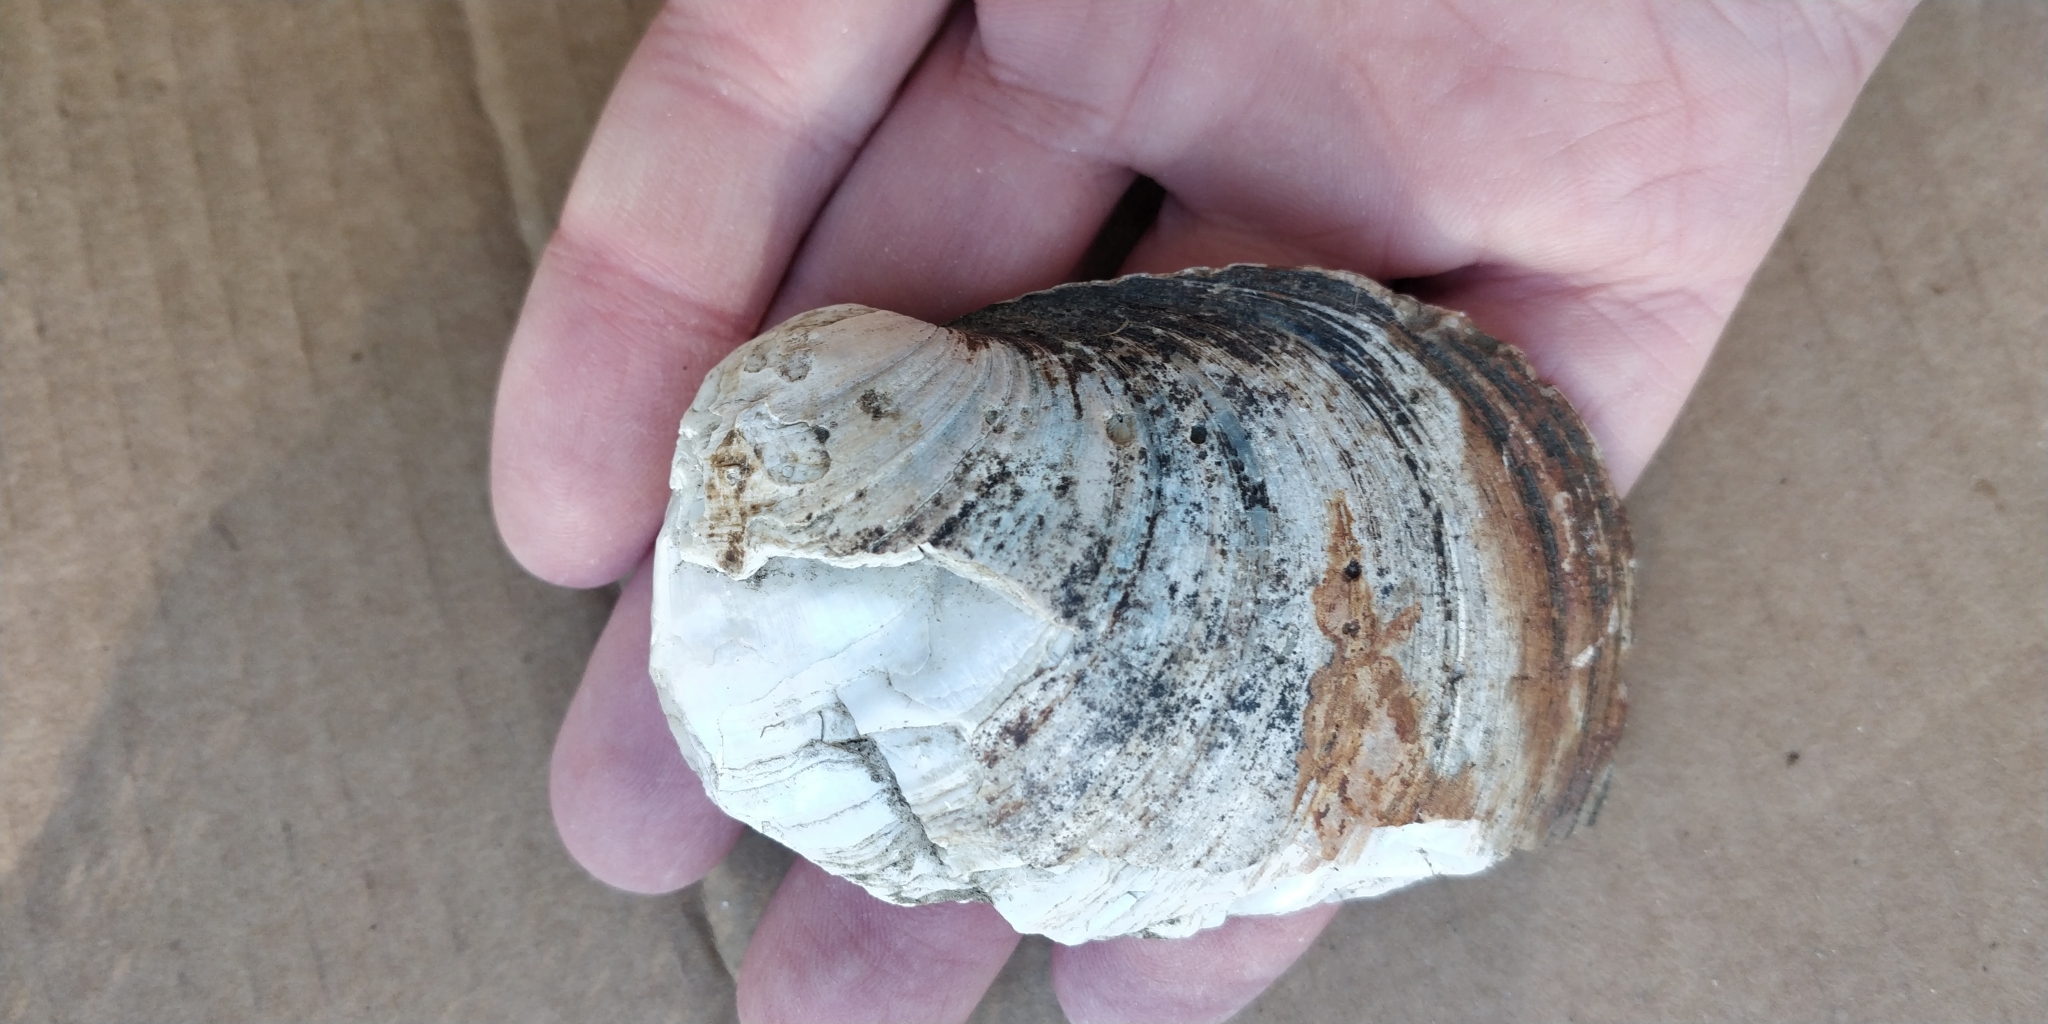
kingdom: Animalia
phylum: Mollusca
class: Bivalvia
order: Unionida
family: Unionidae
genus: Quadrula
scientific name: Quadrula quadrula
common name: Mapleleaf
